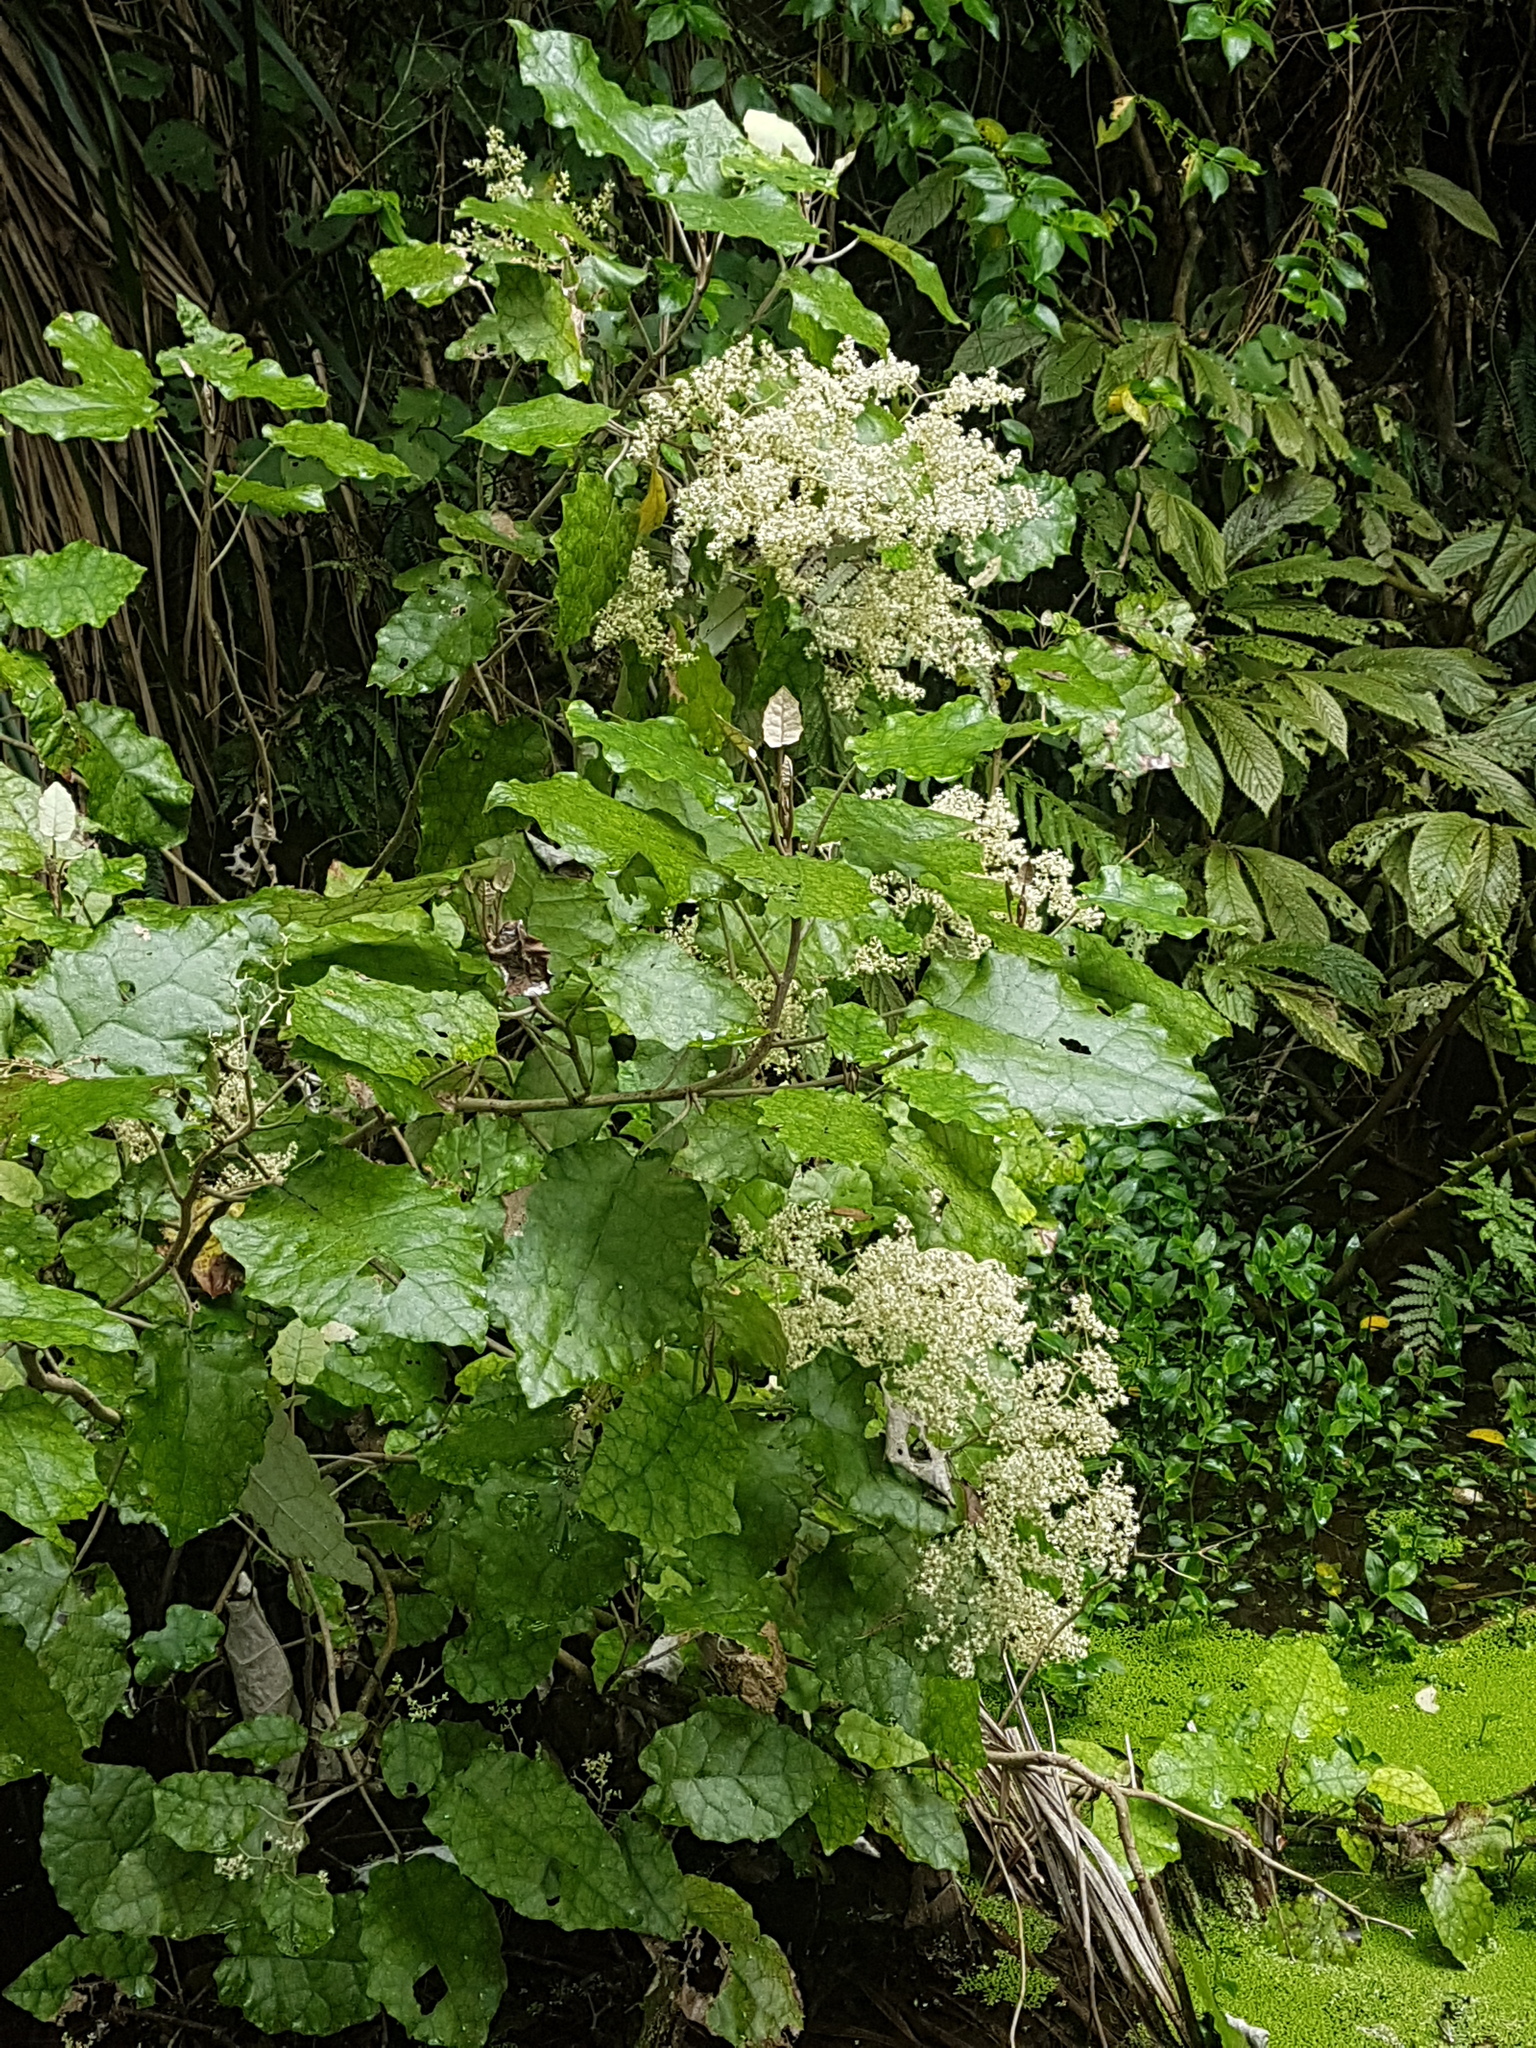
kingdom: Plantae
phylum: Tracheophyta
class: Magnoliopsida
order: Asterales
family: Asteraceae
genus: Brachyglottis
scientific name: Brachyglottis repanda
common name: Hedge ragwort
